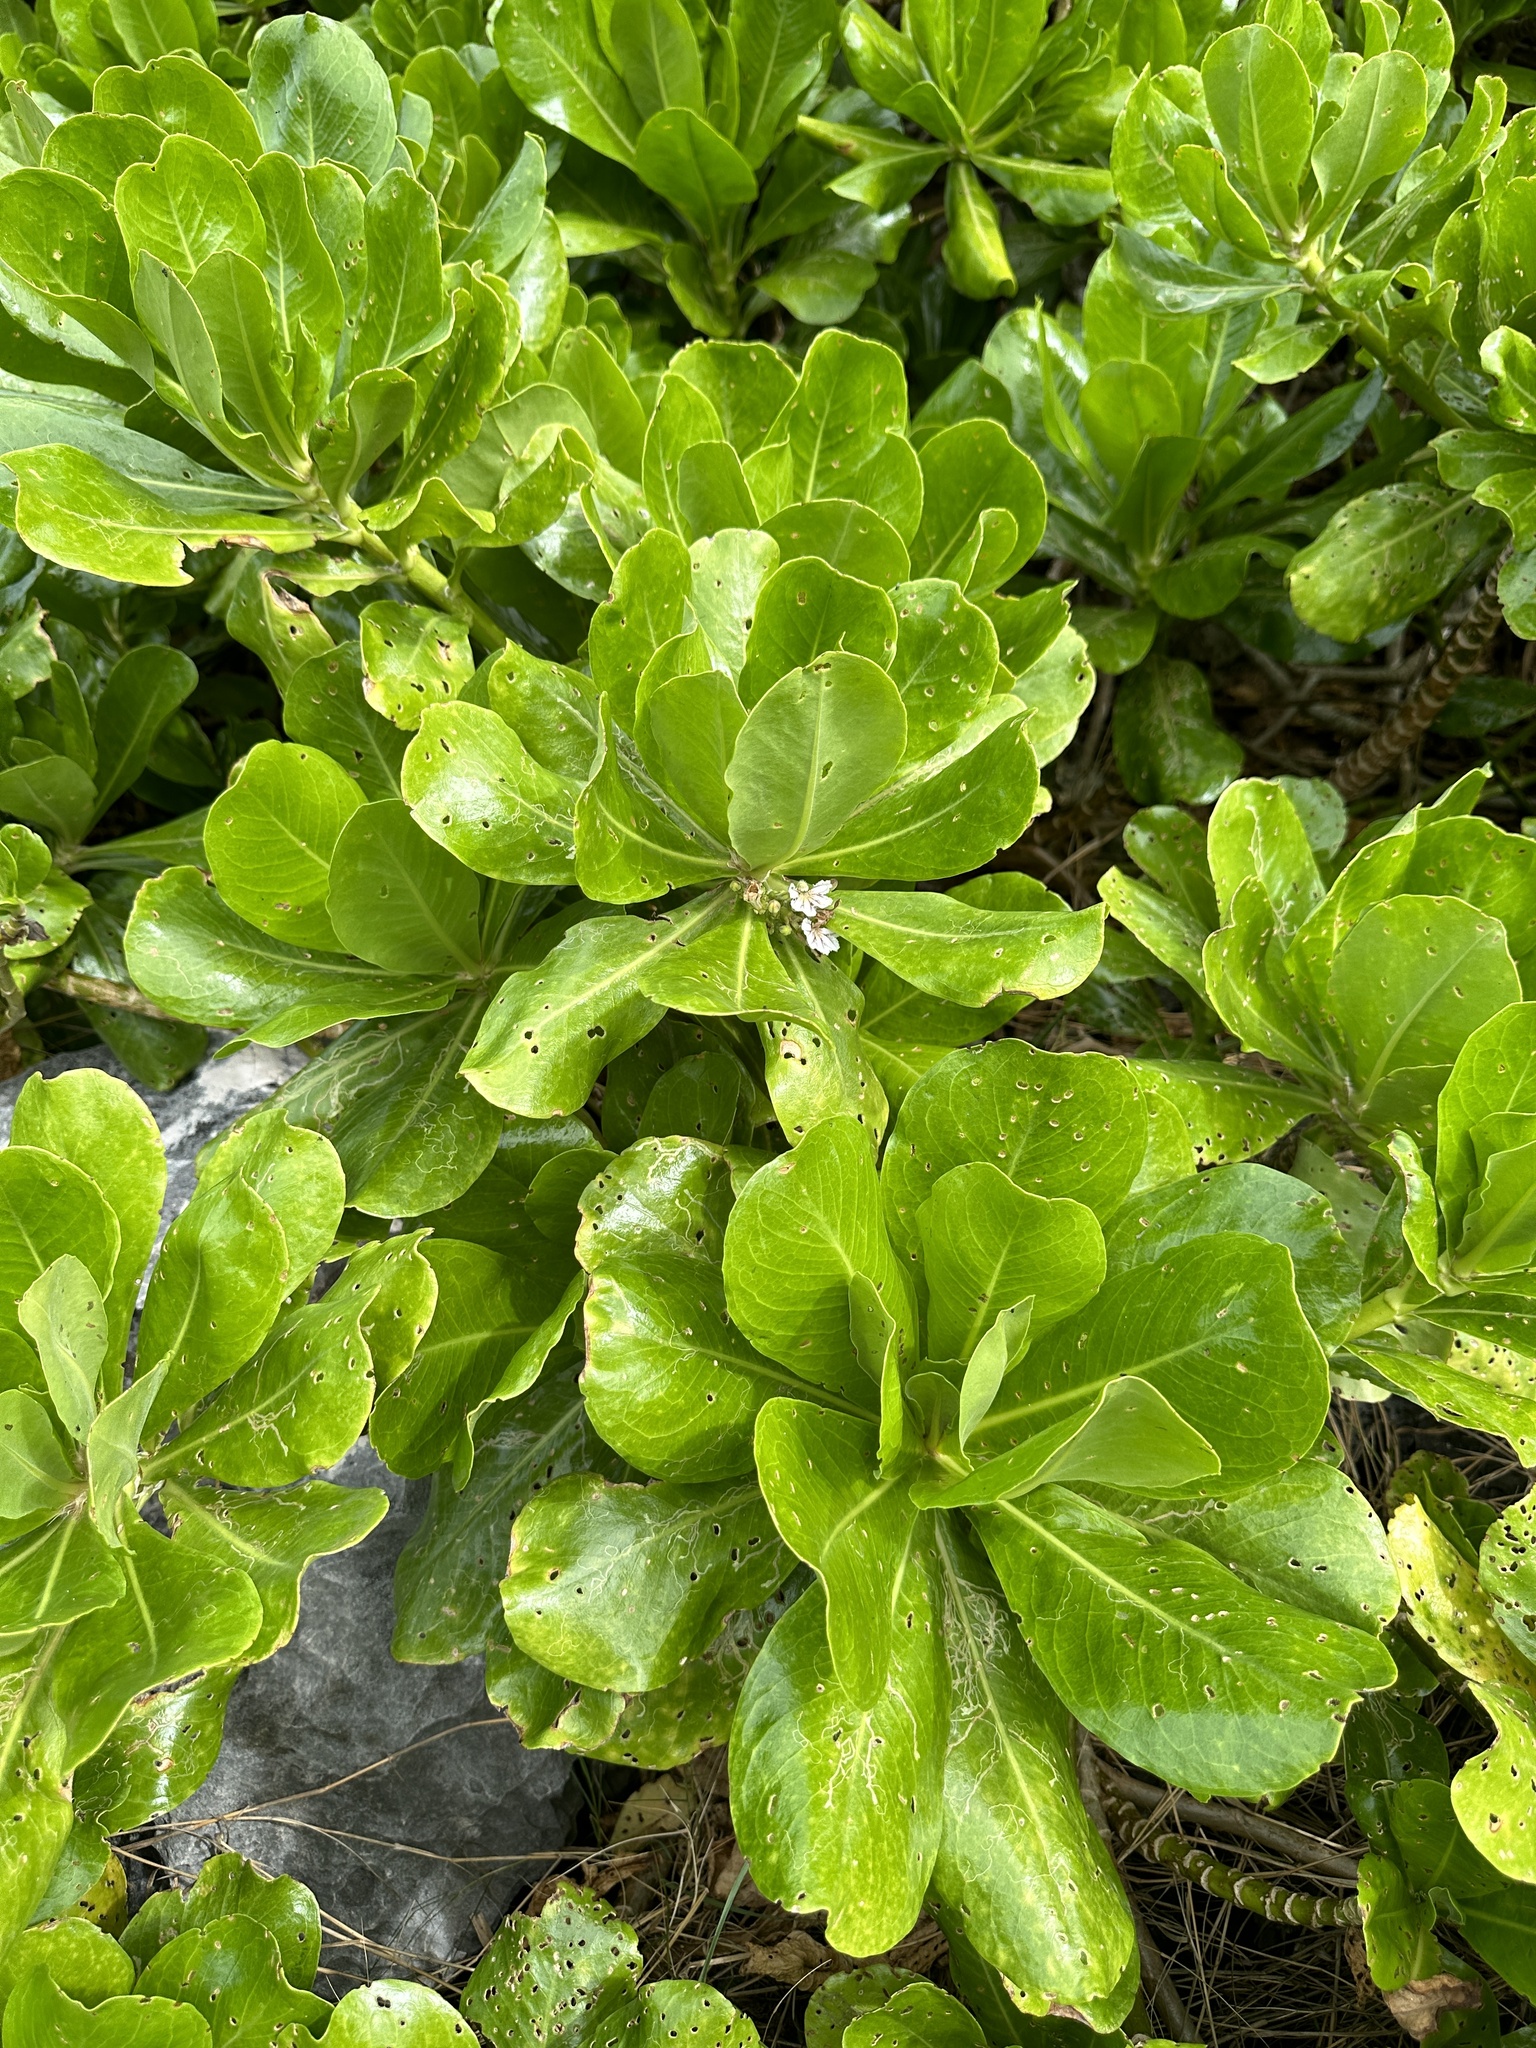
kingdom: Plantae
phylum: Tracheophyta
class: Magnoliopsida
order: Asterales
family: Goodeniaceae
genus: Scaevola
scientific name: Scaevola taccada
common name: Sea lettucetree
